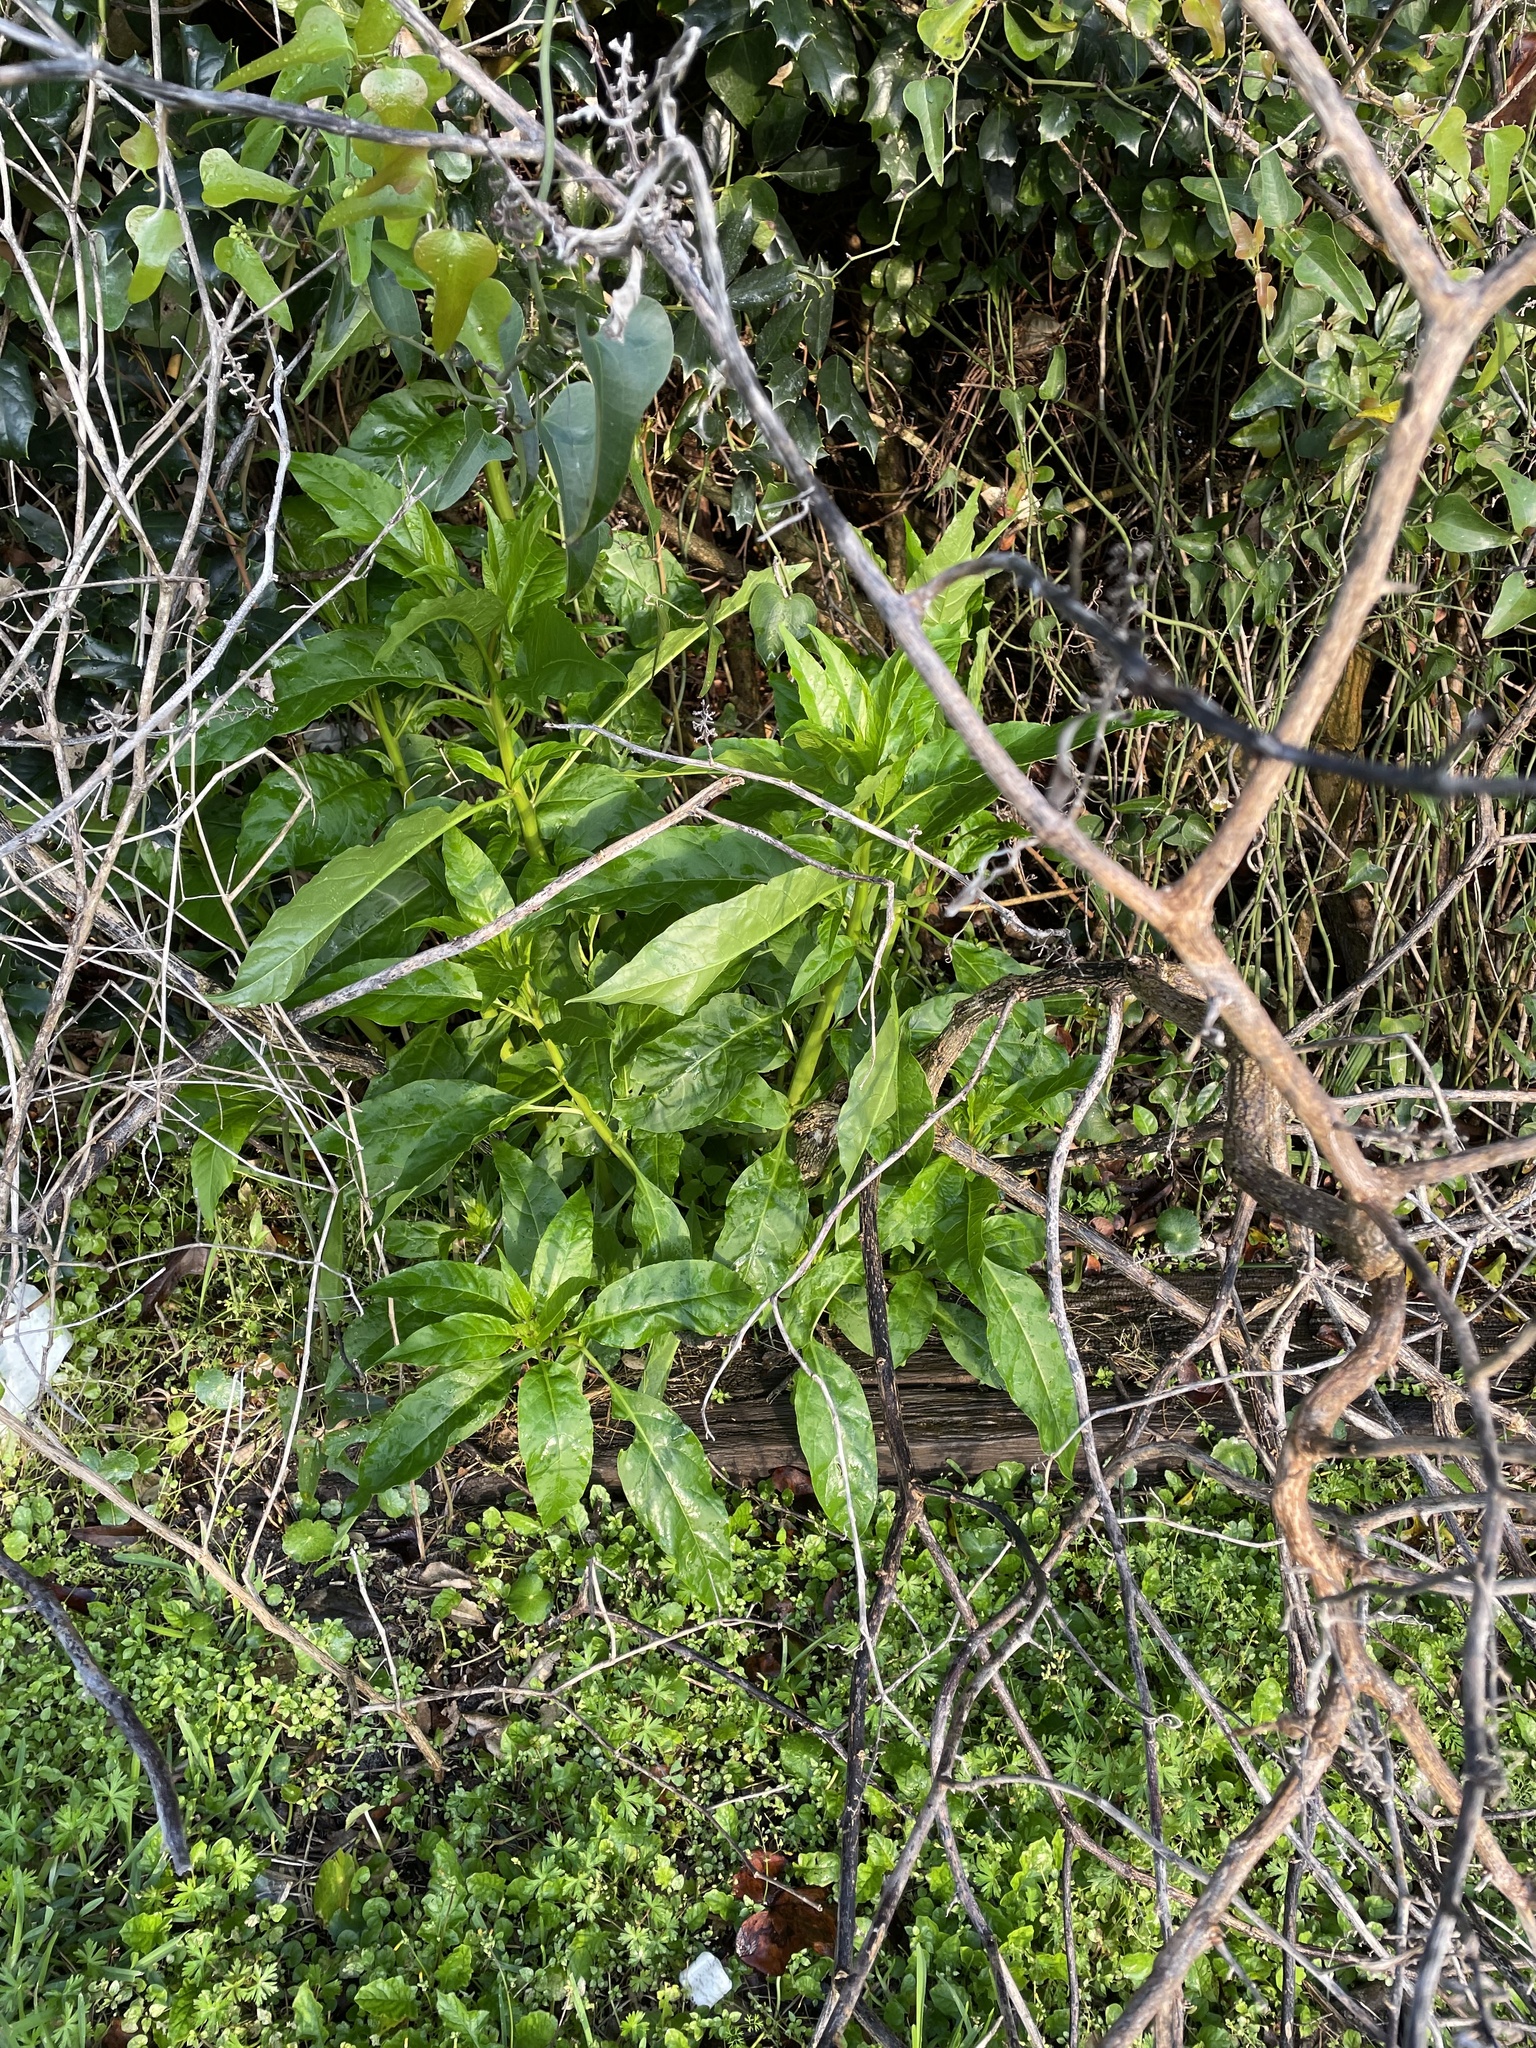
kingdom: Plantae
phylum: Tracheophyta
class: Magnoliopsida
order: Caryophyllales
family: Phytolaccaceae
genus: Phytolacca
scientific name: Phytolacca americana
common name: American pokeweed
